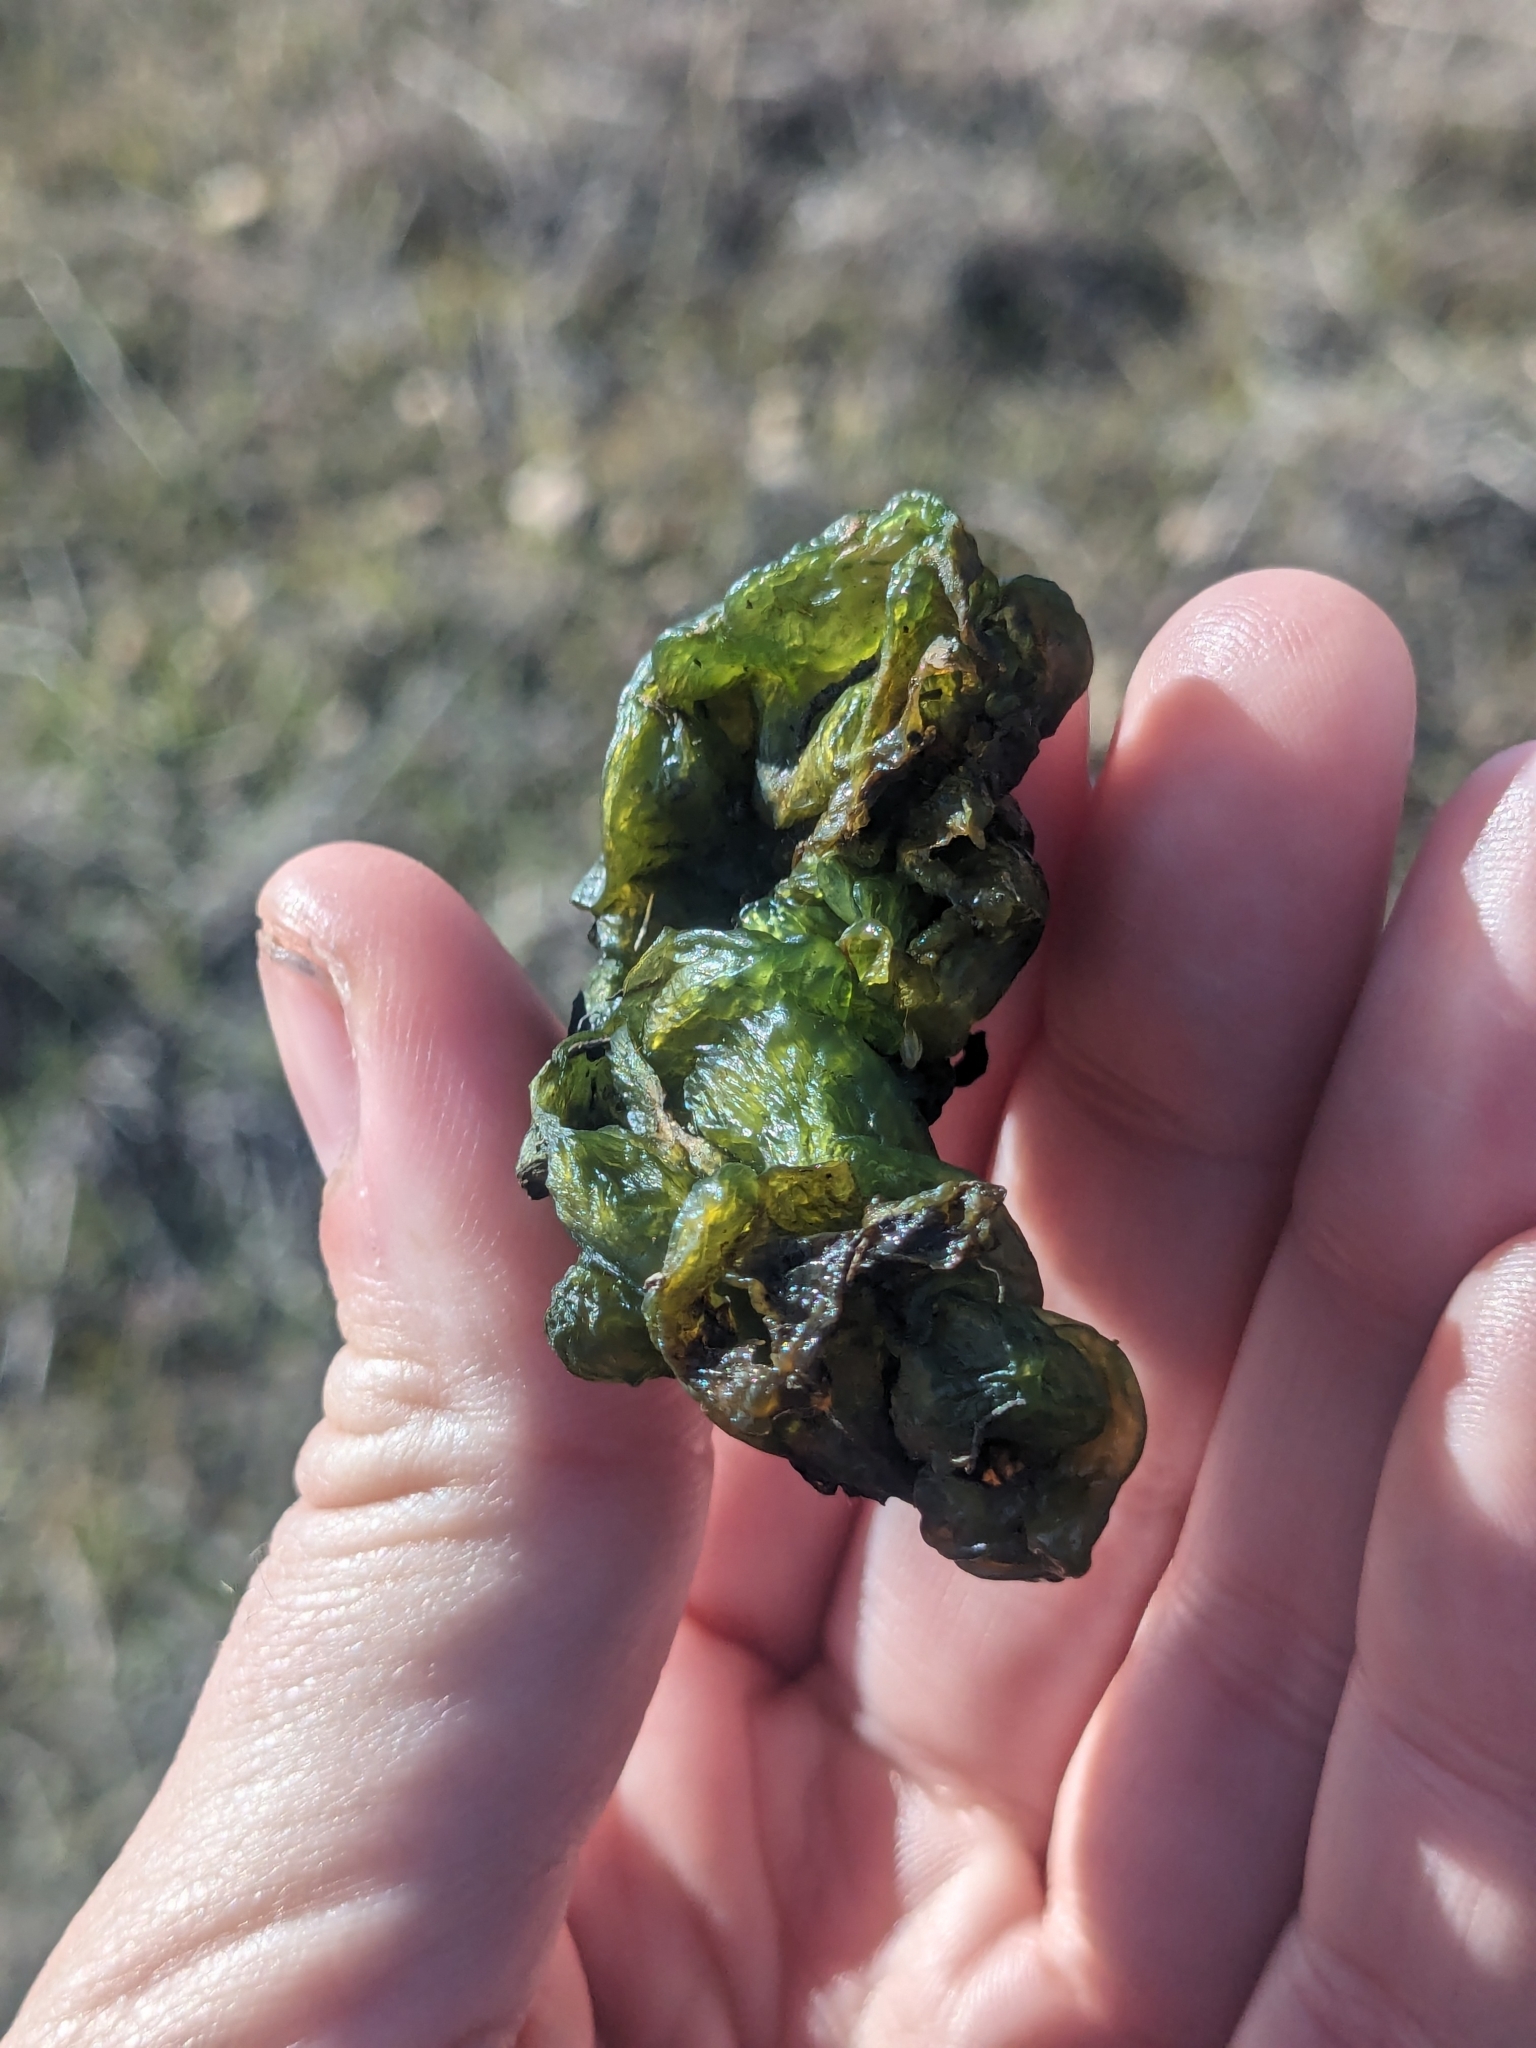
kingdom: Bacteria
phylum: Cyanobacteria
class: Cyanobacteriia
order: Cyanobacteriales
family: Nostocaceae
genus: Nostoc
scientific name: Nostoc commune
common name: Star jelly
